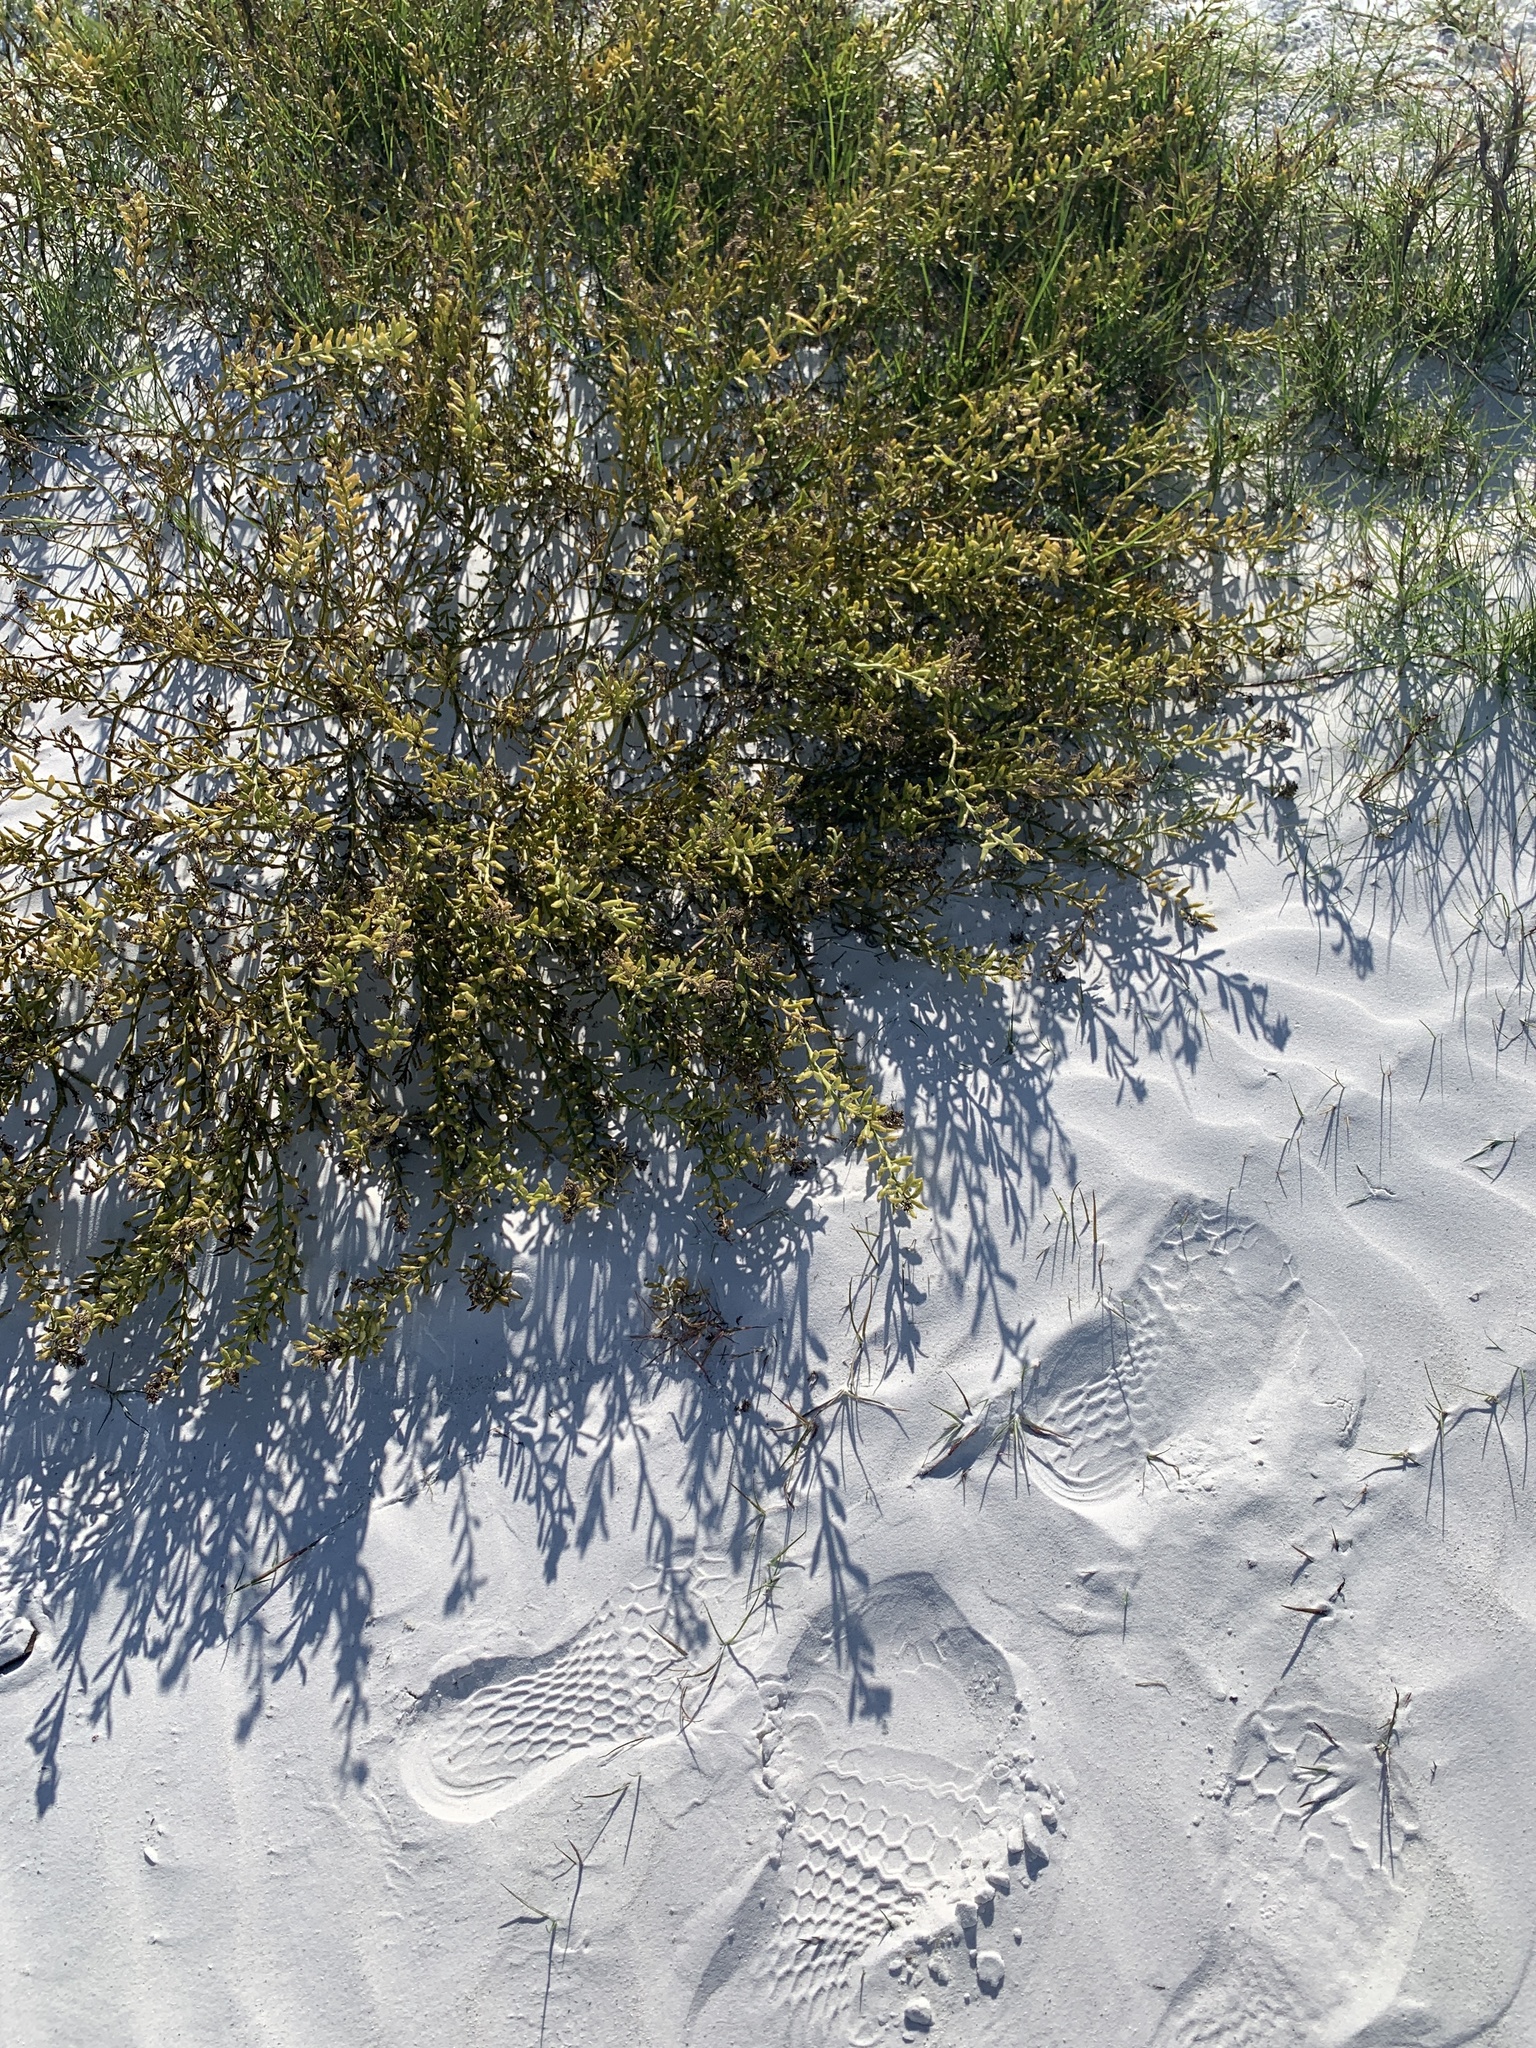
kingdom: Plantae
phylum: Tracheophyta
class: Magnoliopsida
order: Brassicales
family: Bataceae
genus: Batis
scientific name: Batis maritima
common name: Turtleweed
